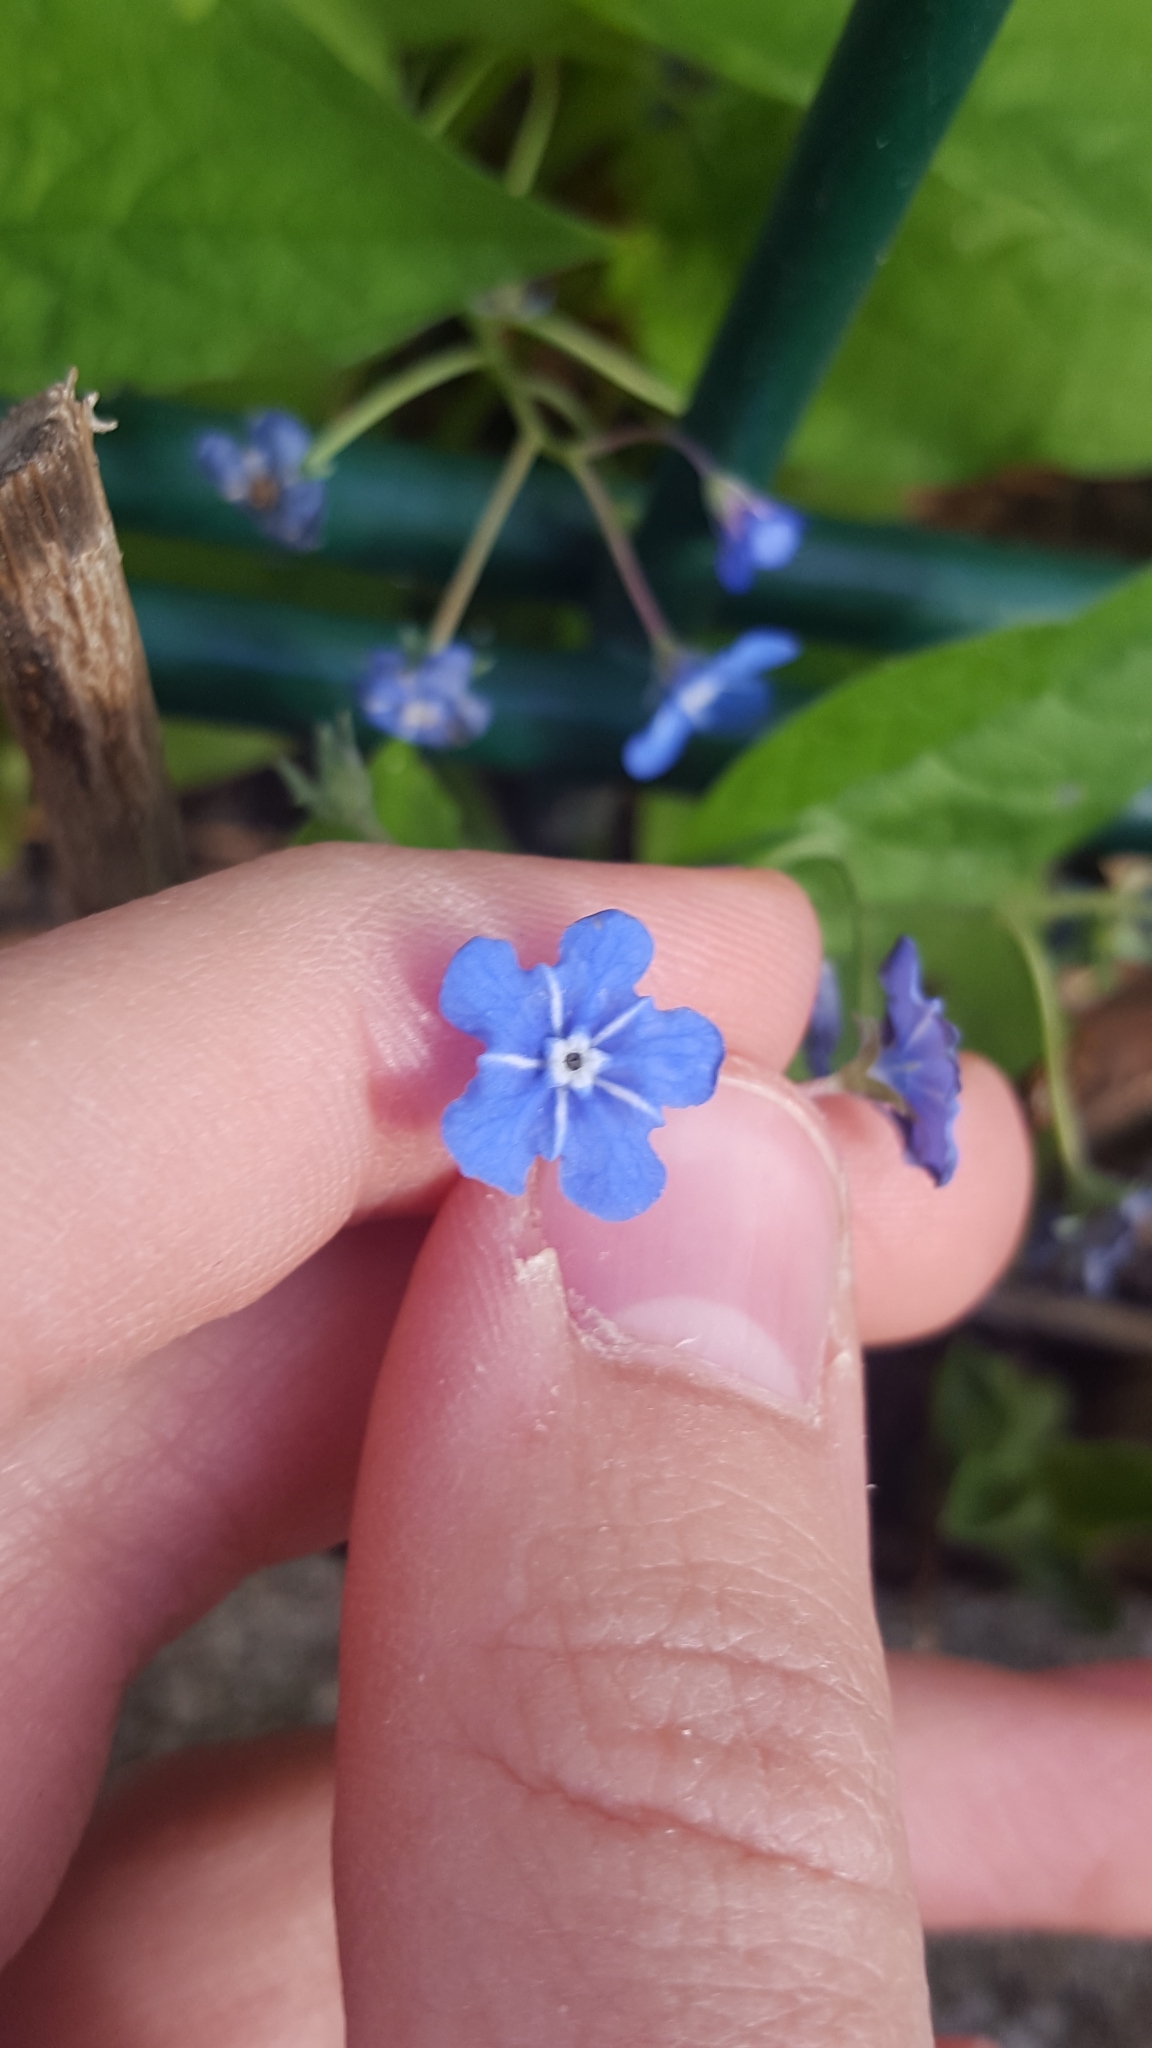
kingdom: Plantae
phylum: Tracheophyta
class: Magnoliopsida
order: Boraginales
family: Boraginaceae
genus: Omphalodes
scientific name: Omphalodes verna
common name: Blue-eyed-mary
